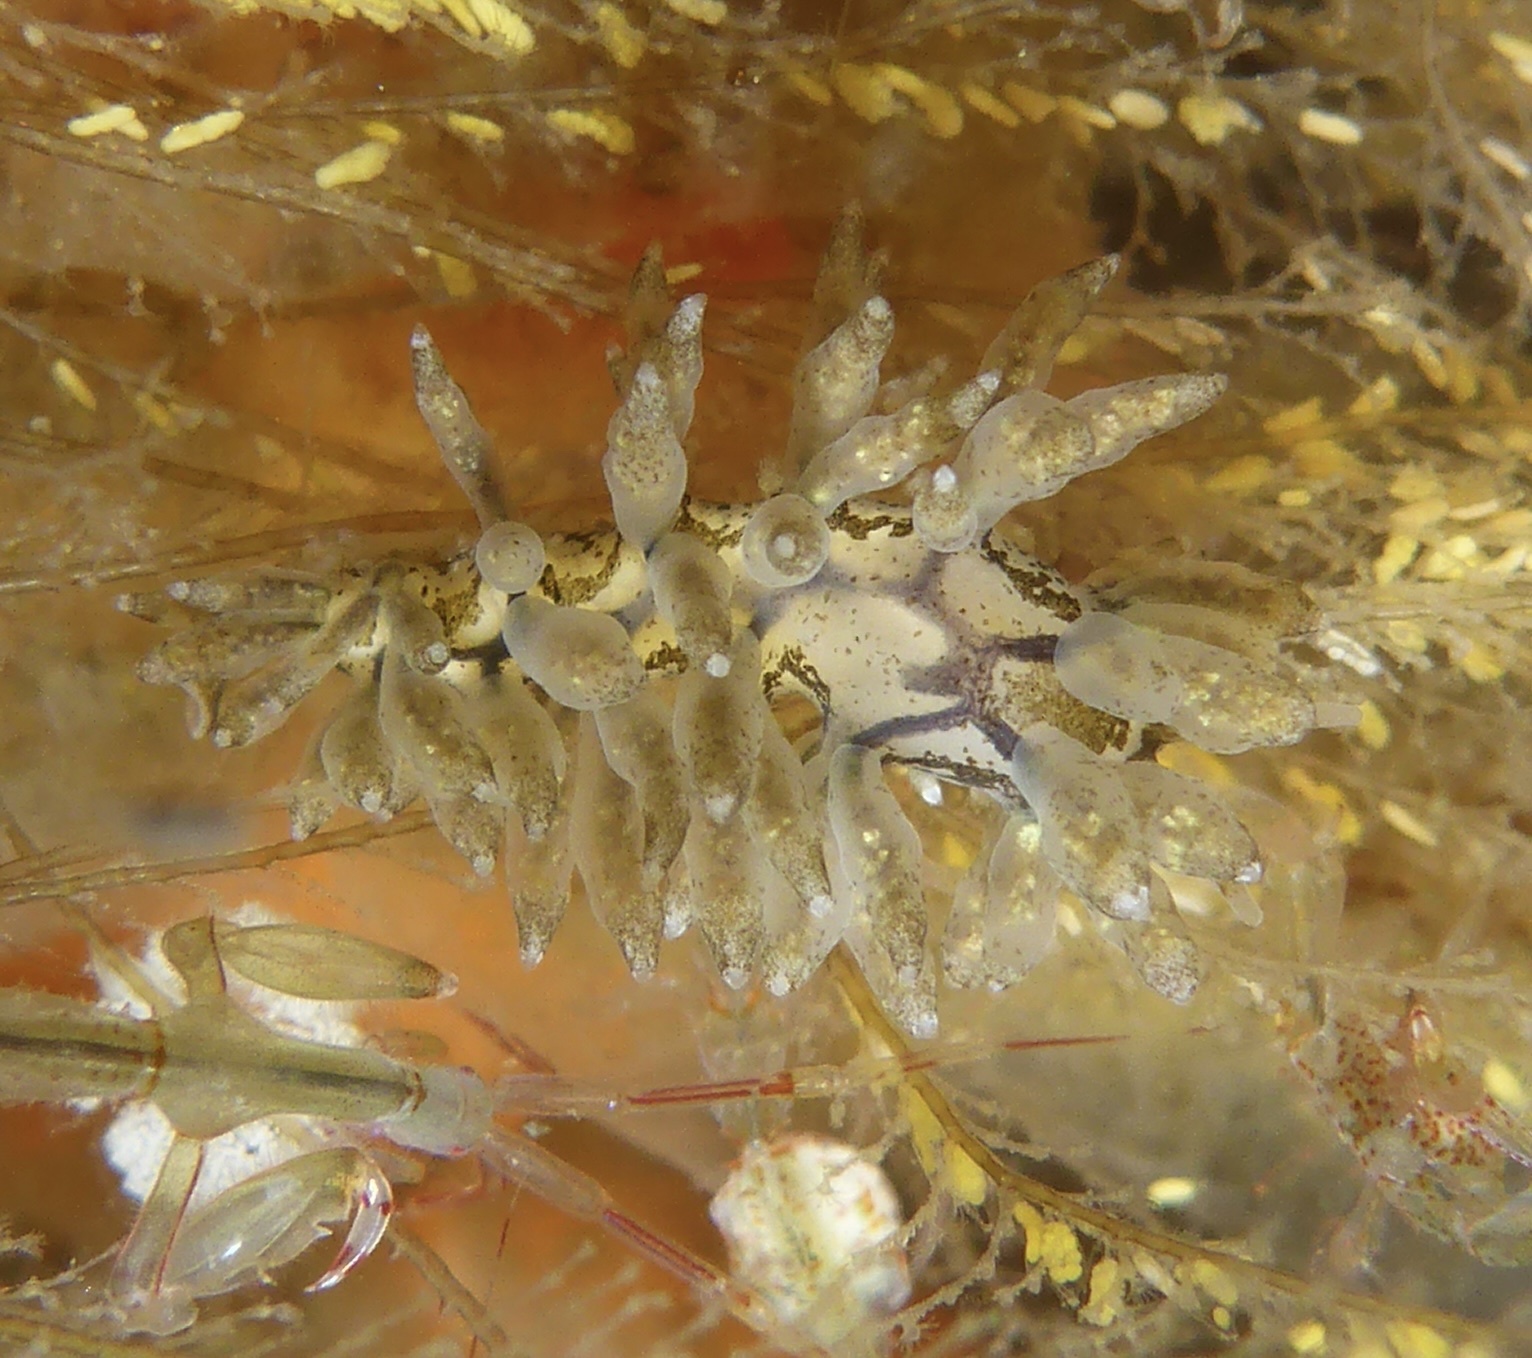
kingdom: Animalia
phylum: Mollusca
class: Gastropoda
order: Nudibranchia
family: Eubranchidae
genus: Eubranchus
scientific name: Eubranchus rustyus
